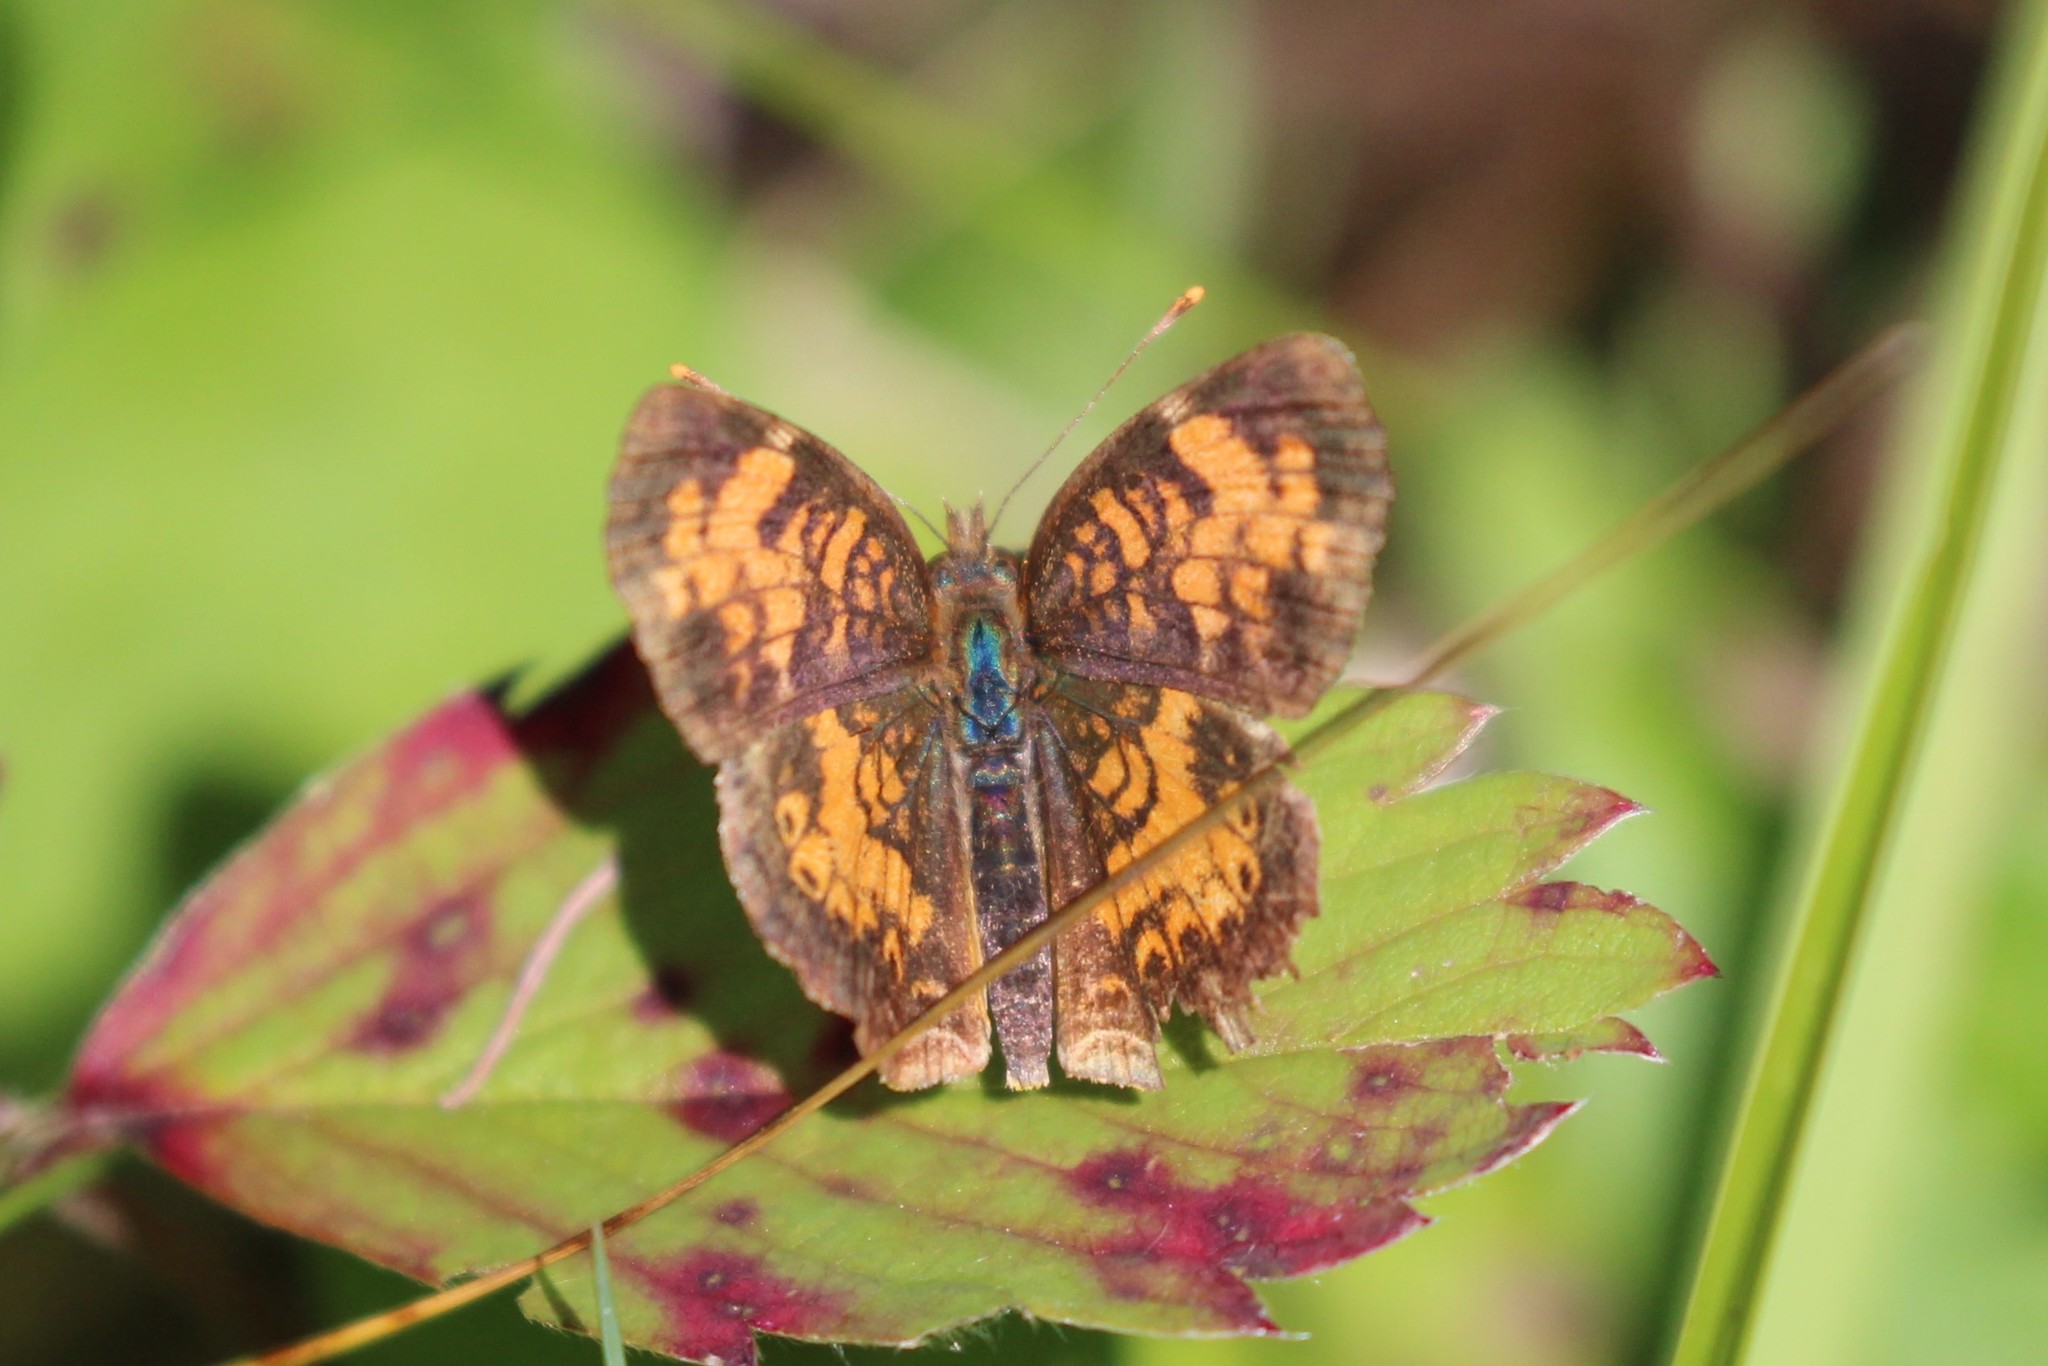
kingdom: Animalia
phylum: Arthropoda
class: Insecta
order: Lepidoptera
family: Nymphalidae
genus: Phyciodes
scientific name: Phyciodes tharos
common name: Pearl crescent
